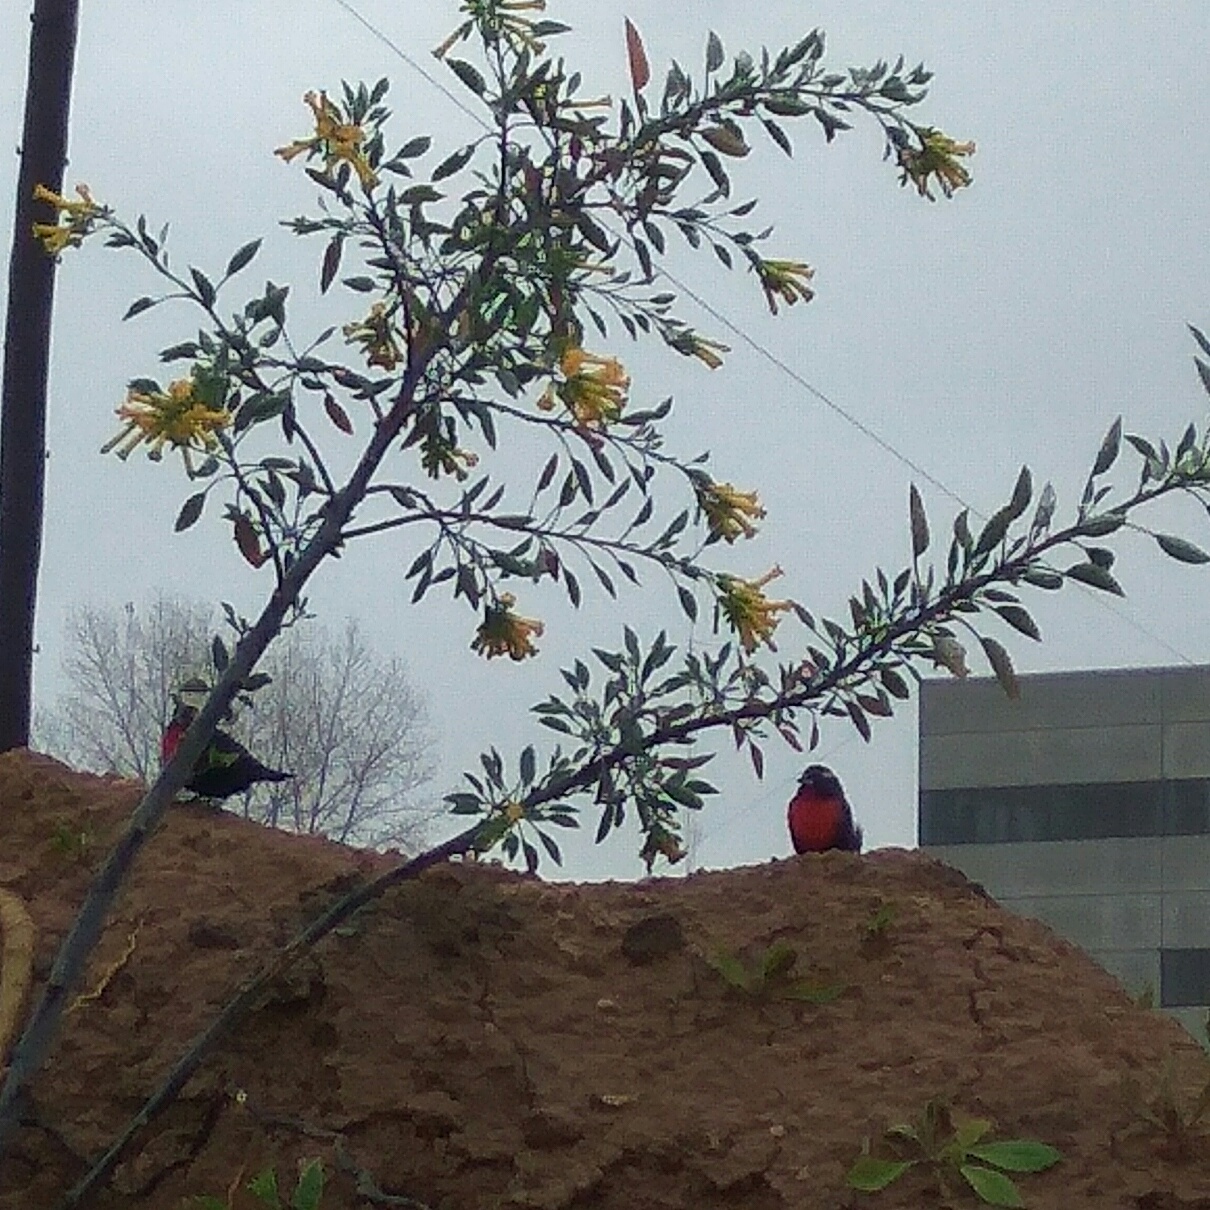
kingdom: Animalia
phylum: Chordata
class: Aves
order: Passeriformes
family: Icteridae
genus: Sturnella
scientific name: Sturnella superciliaris
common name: White-browed blackbird
